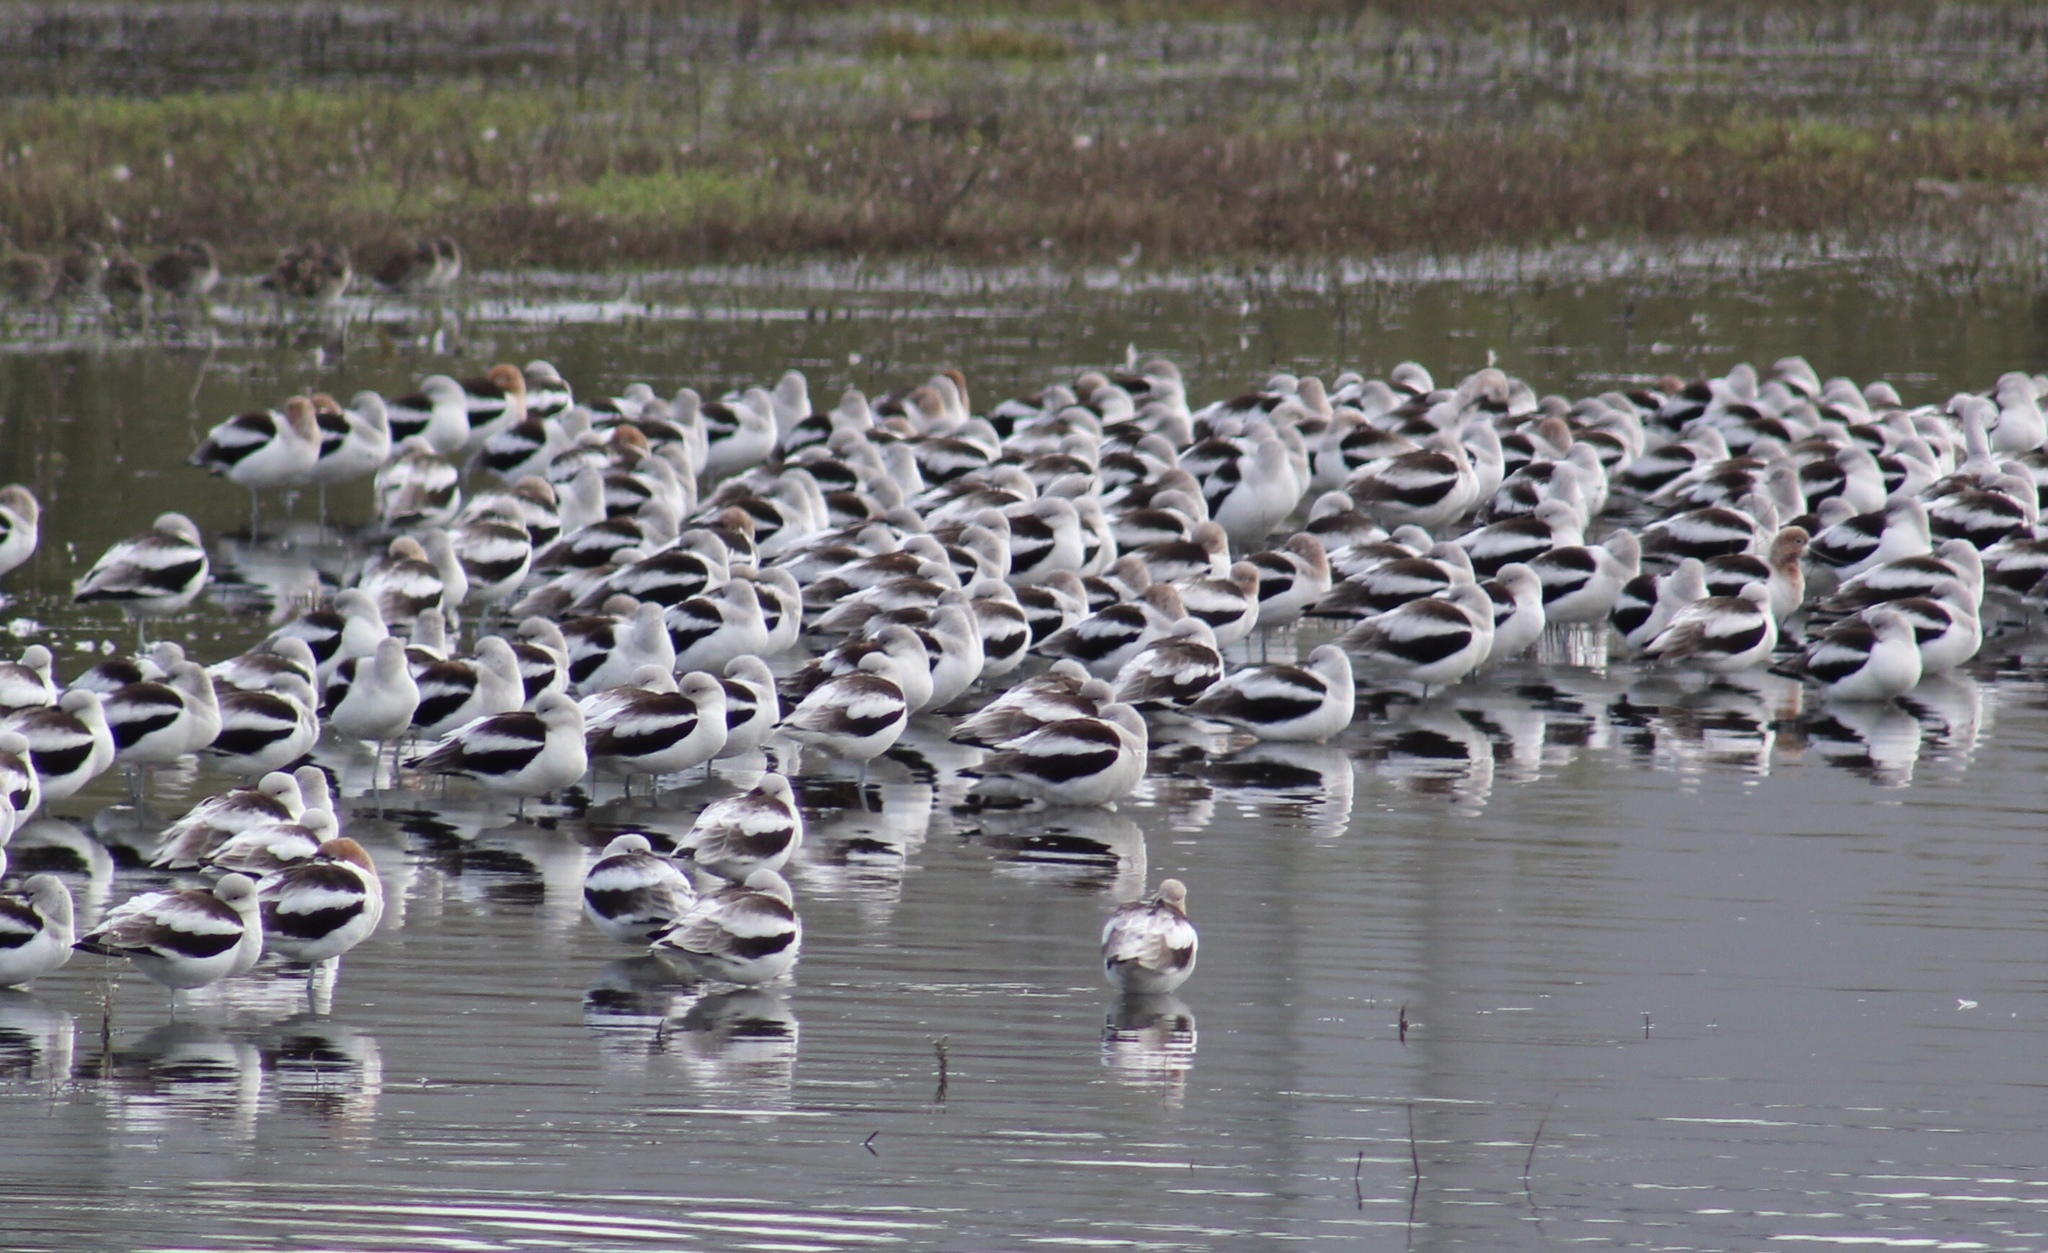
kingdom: Animalia
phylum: Chordata
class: Aves
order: Charadriiformes
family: Recurvirostridae
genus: Recurvirostra
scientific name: Recurvirostra americana
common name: American avocet
